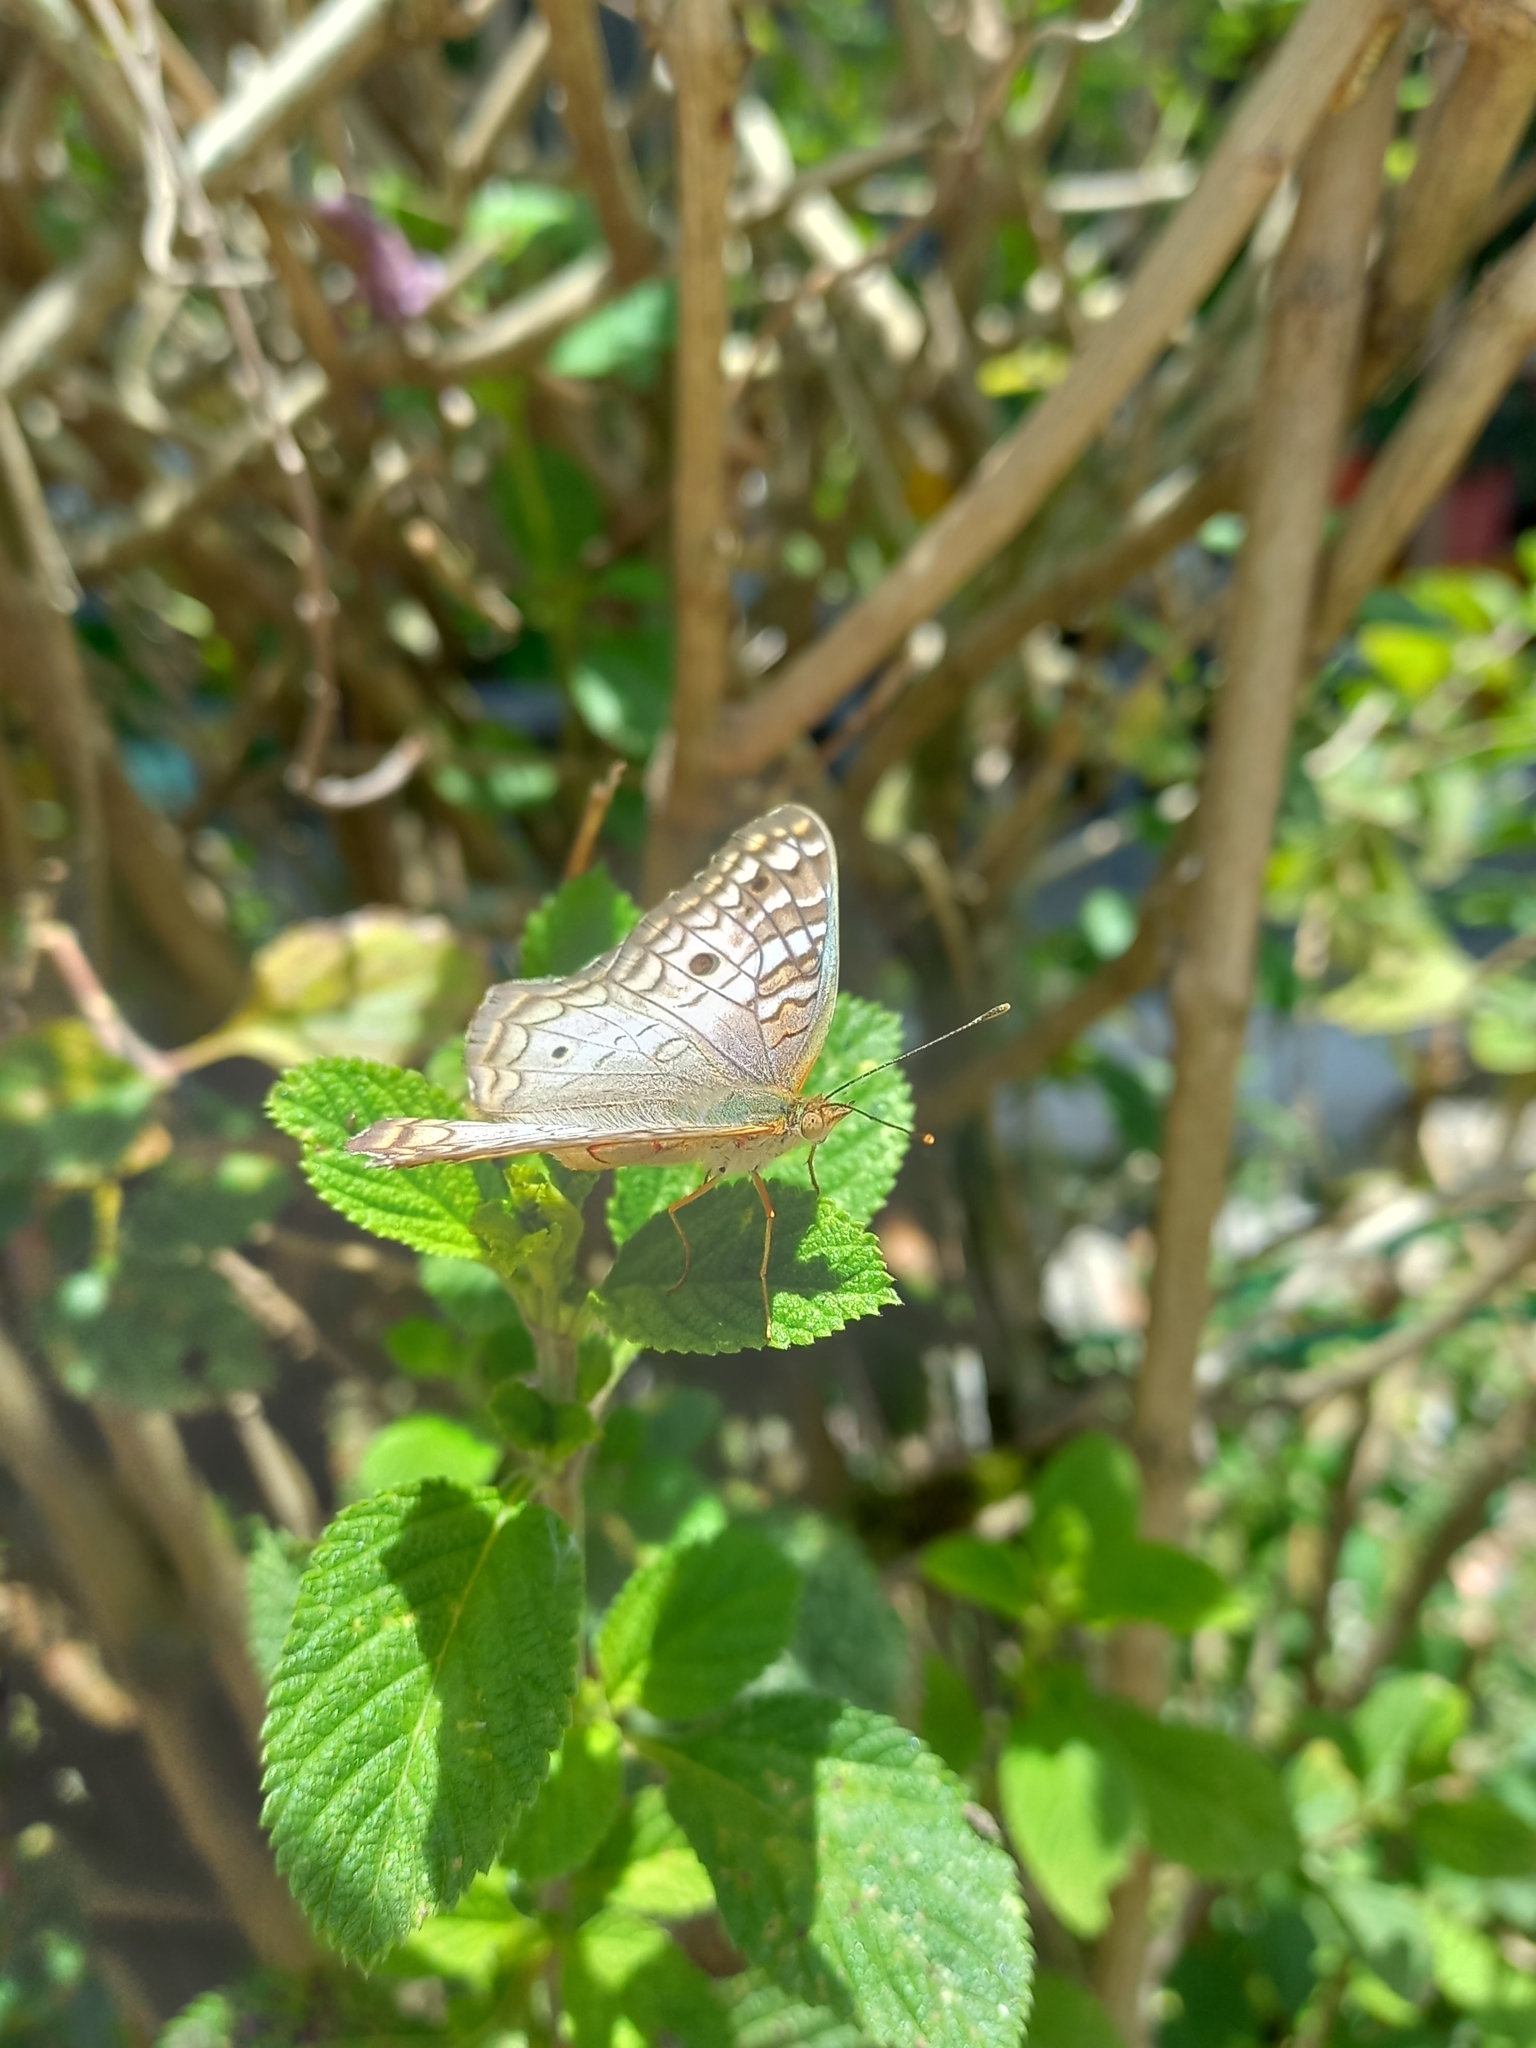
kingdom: Animalia
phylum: Arthropoda
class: Insecta
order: Lepidoptera
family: Nymphalidae
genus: Anartia
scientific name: Anartia jatrophae
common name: White peacock
